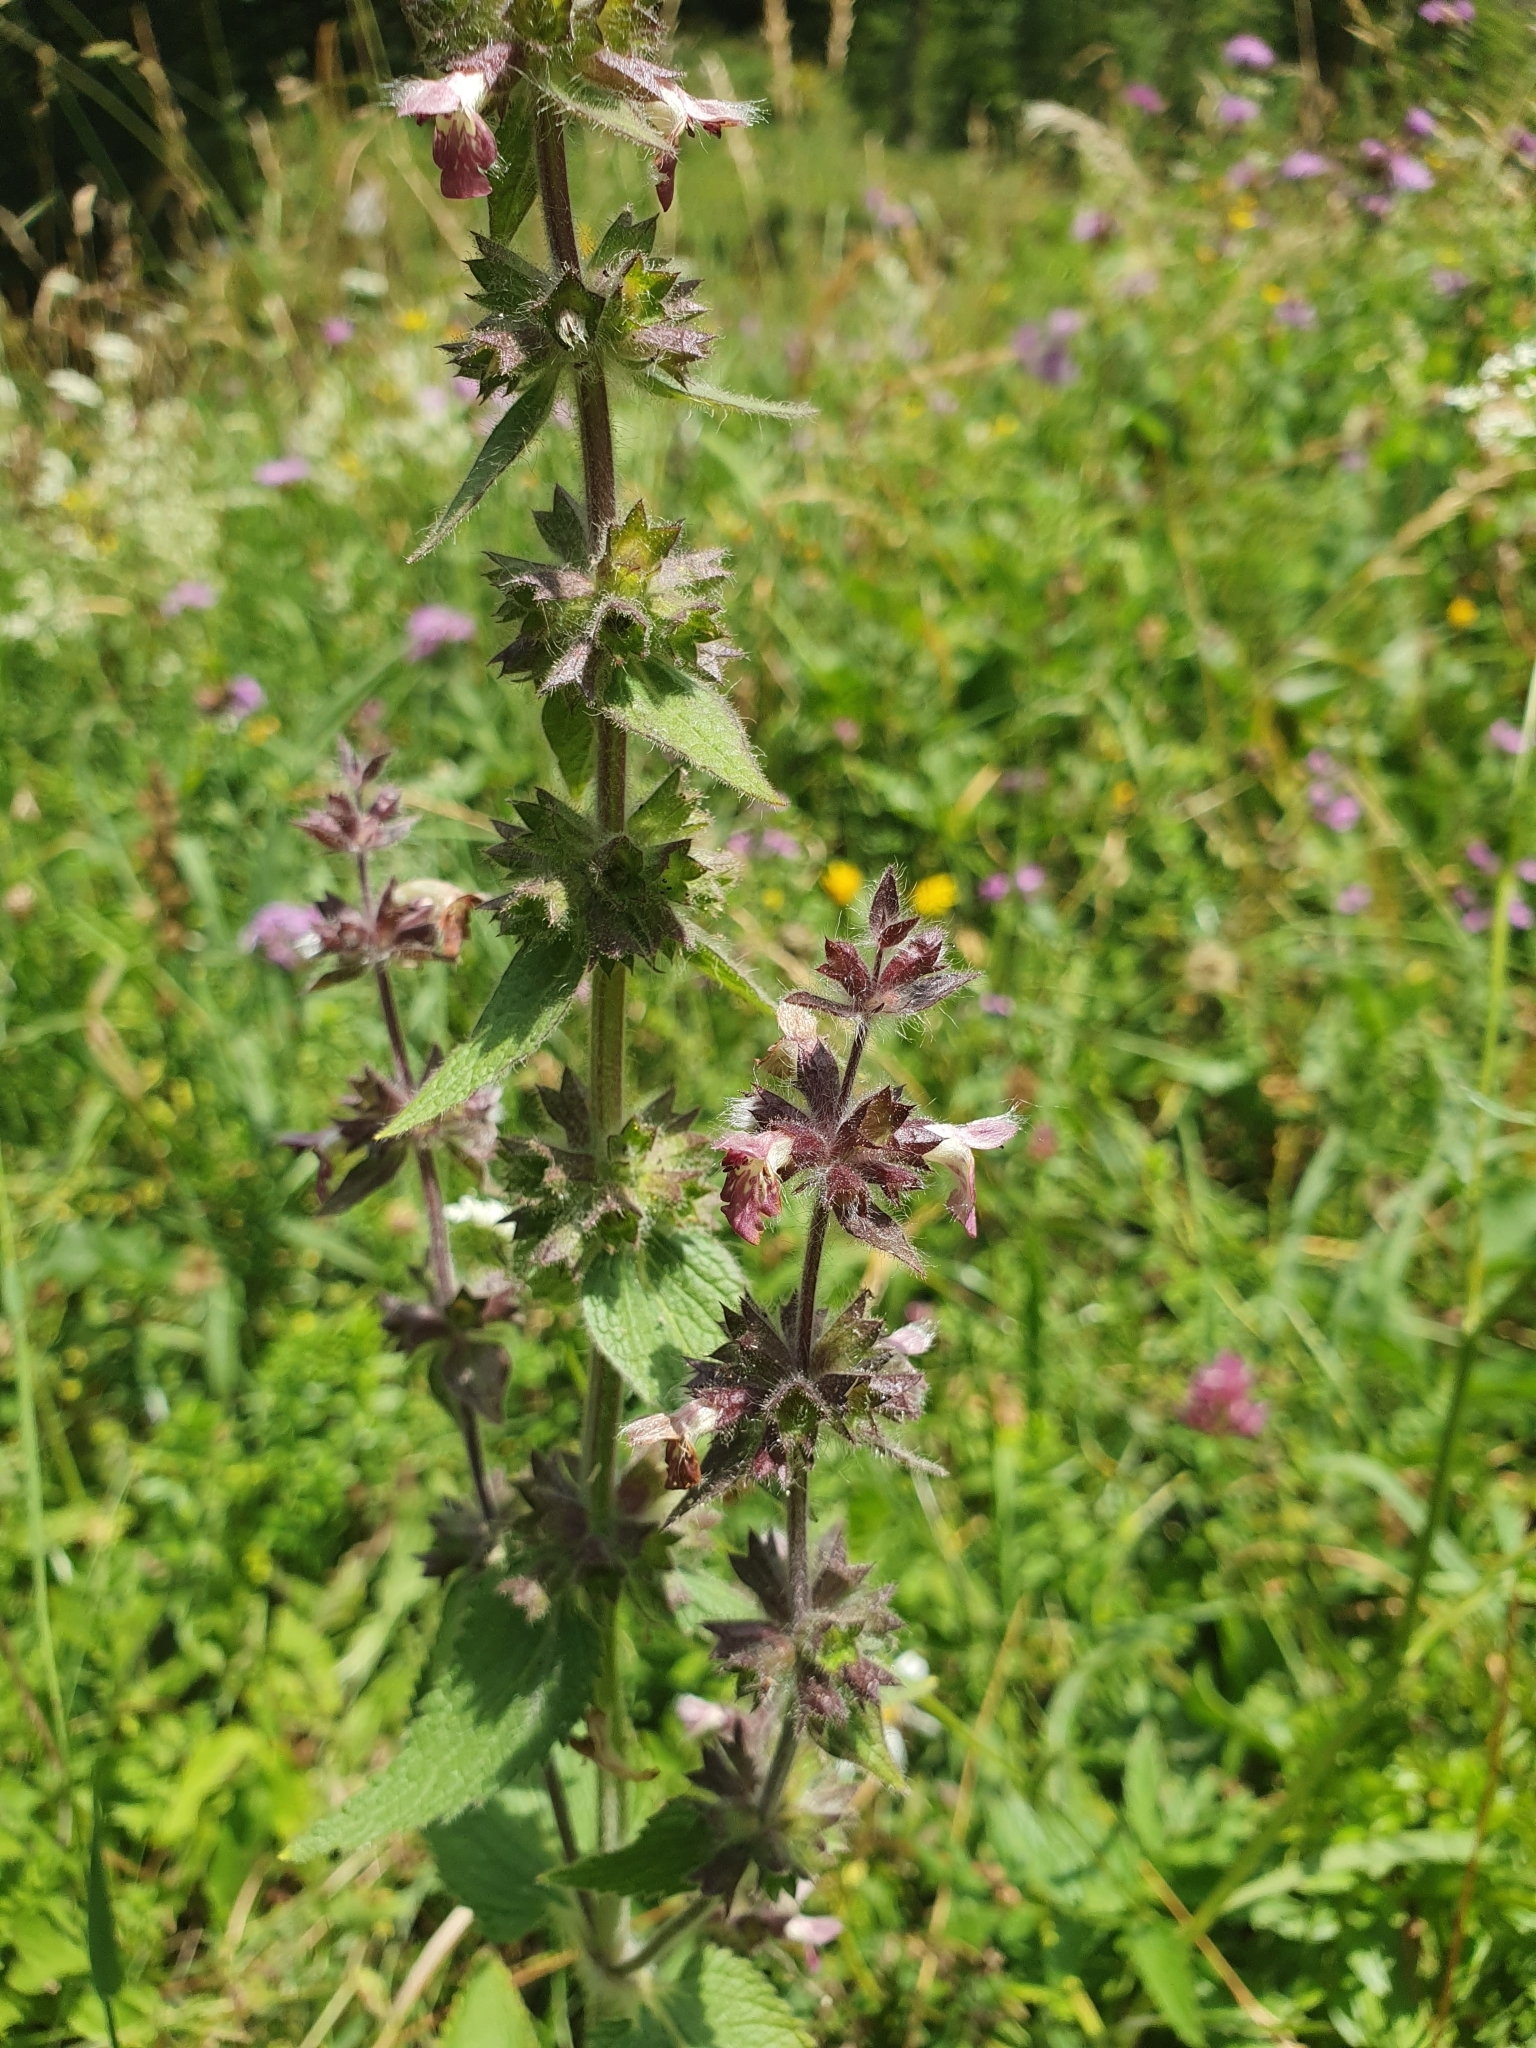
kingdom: Plantae
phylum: Tracheophyta
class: Magnoliopsida
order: Lamiales
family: Lamiaceae
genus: Stachys
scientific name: Stachys alpina
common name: Limestone woundwort
